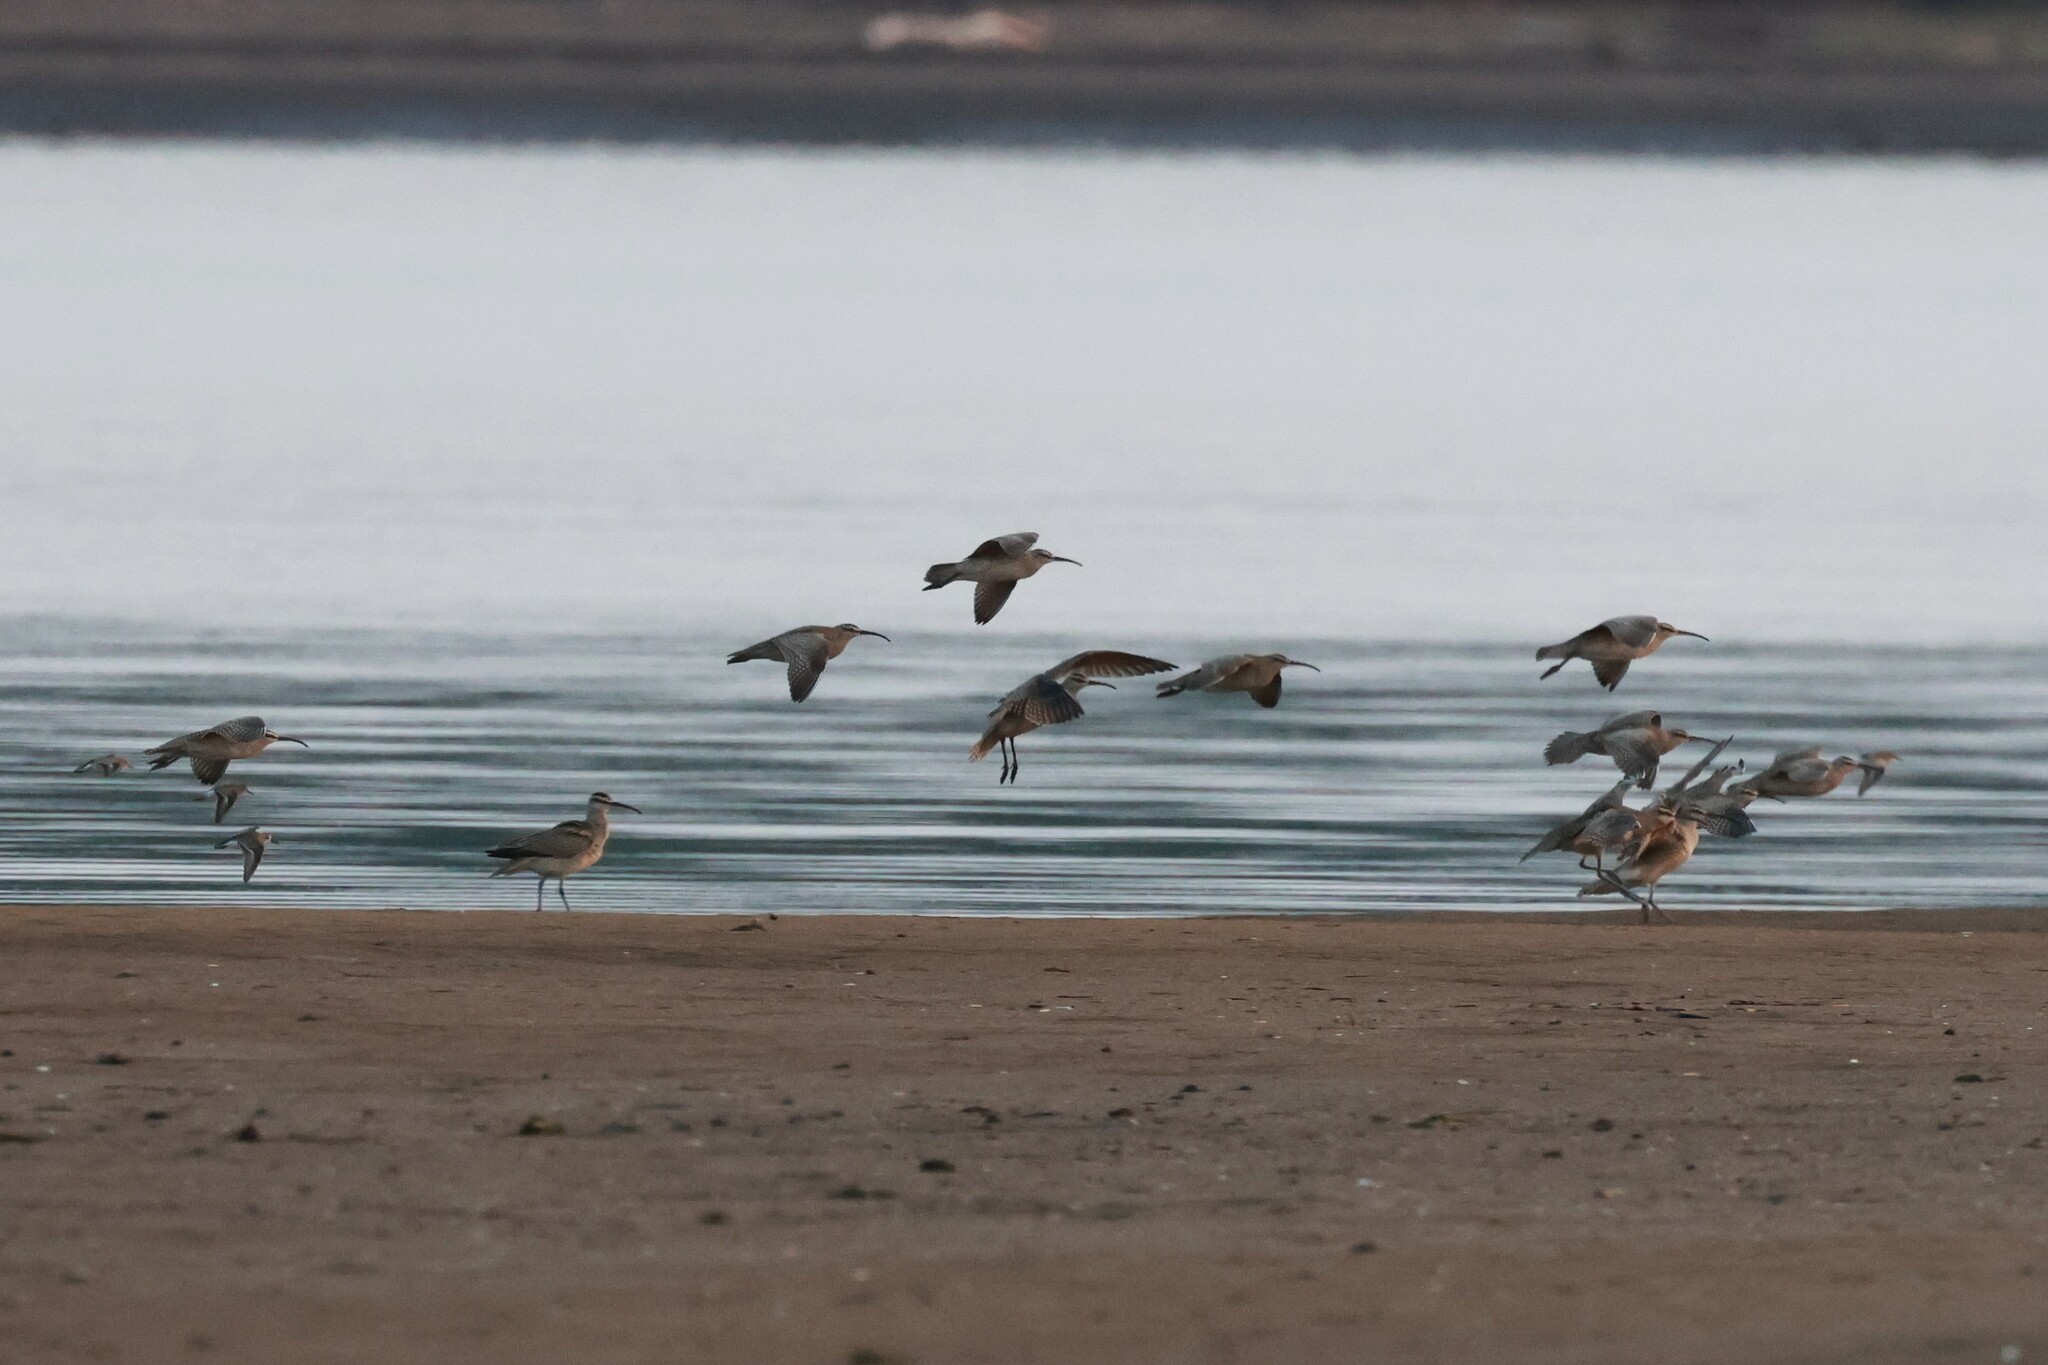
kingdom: Animalia
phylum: Chordata
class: Aves
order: Charadriiformes
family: Scolopacidae
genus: Numenius
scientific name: Numenius phaeopus
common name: Whimbrel
